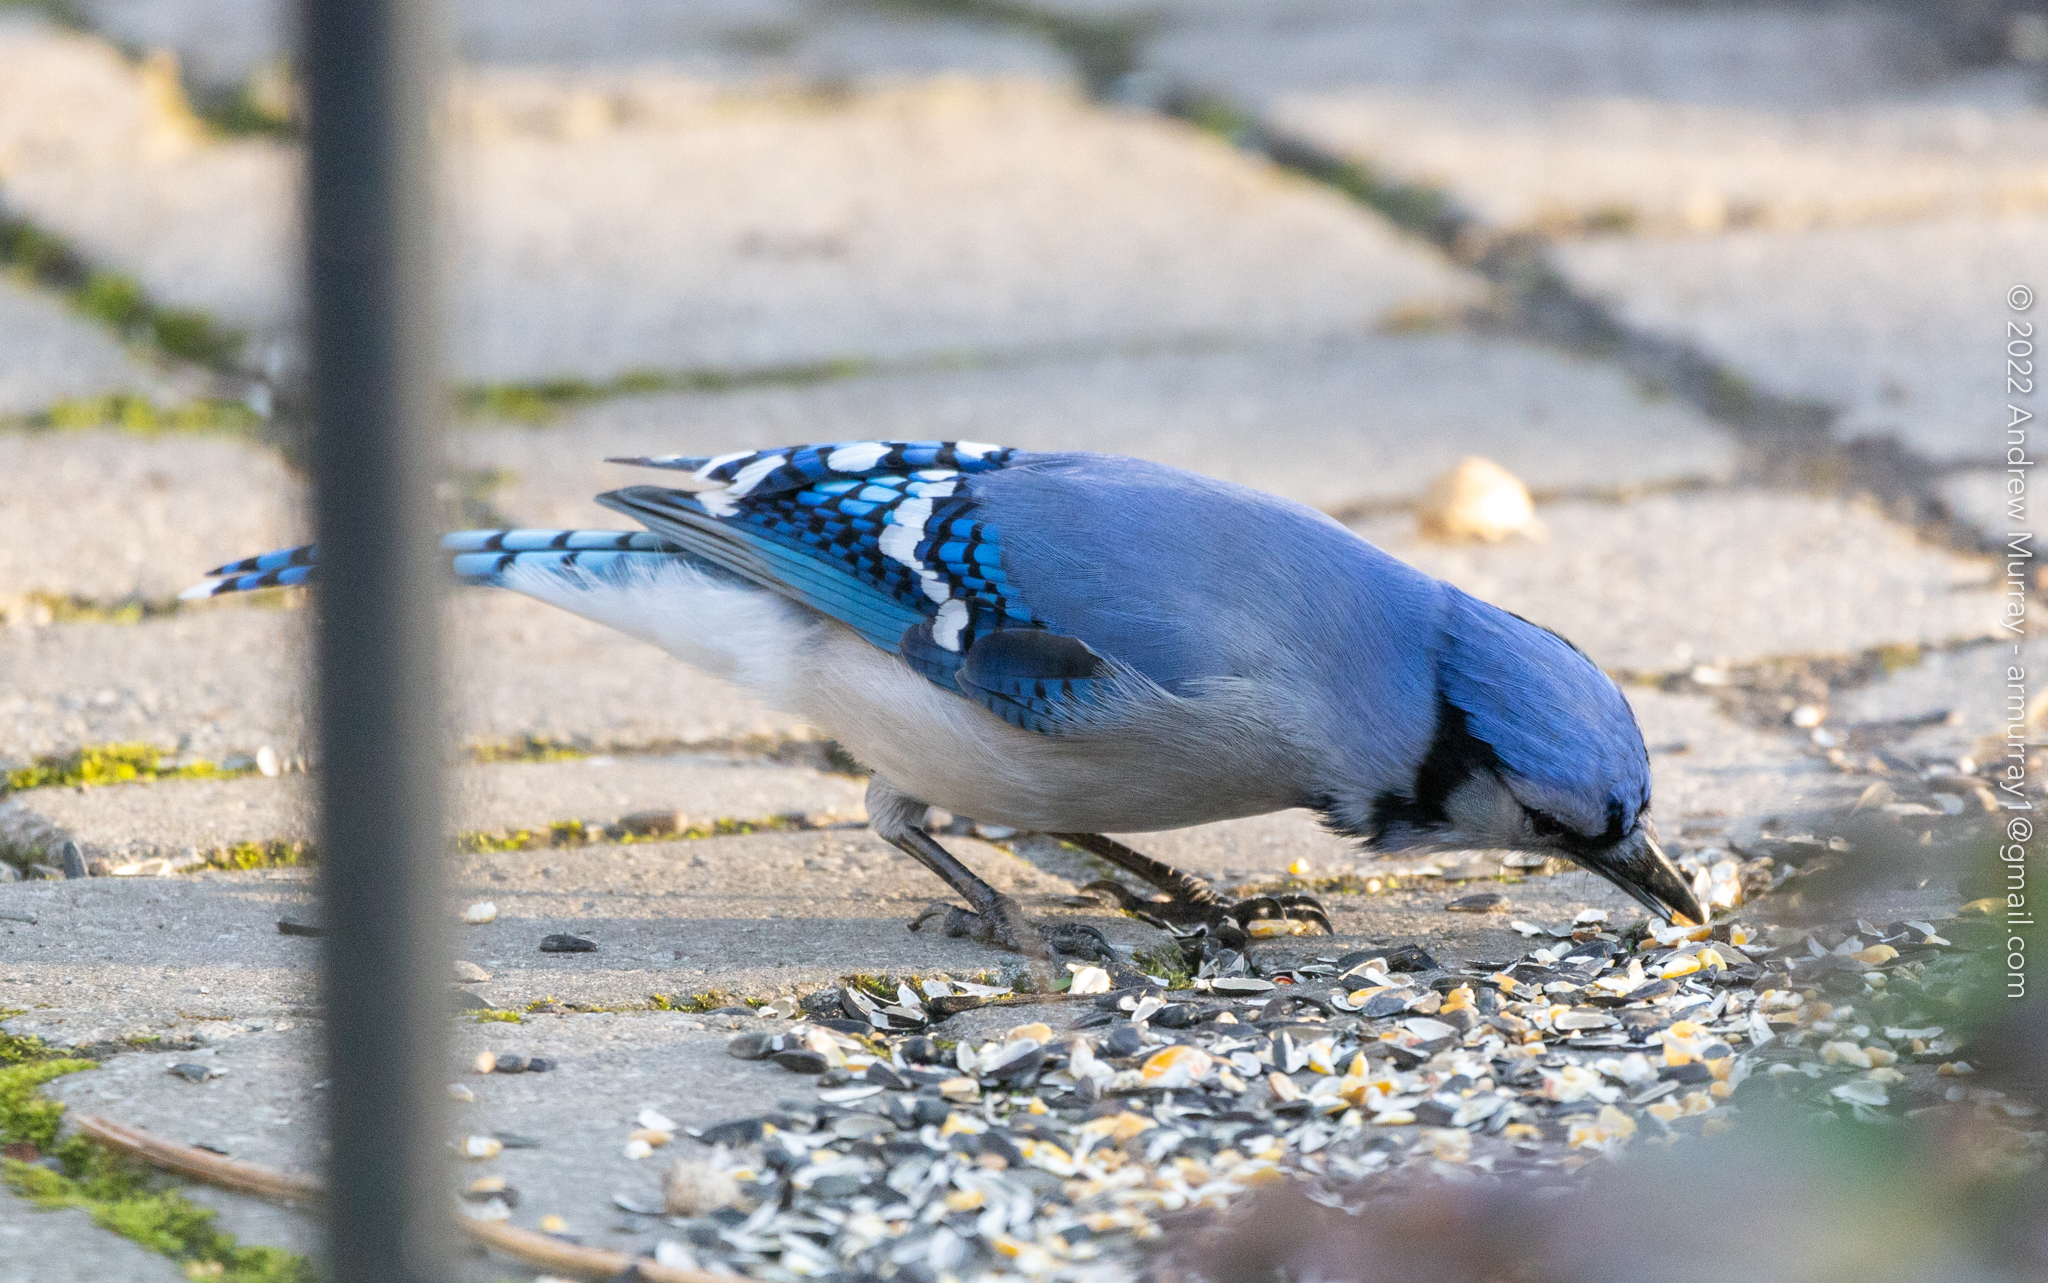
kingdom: Animalia
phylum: Chordata
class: Aves
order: Passeriformes
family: Corvidae
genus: Cyanocitta
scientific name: Cyanocitta cristata
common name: Blue jay
